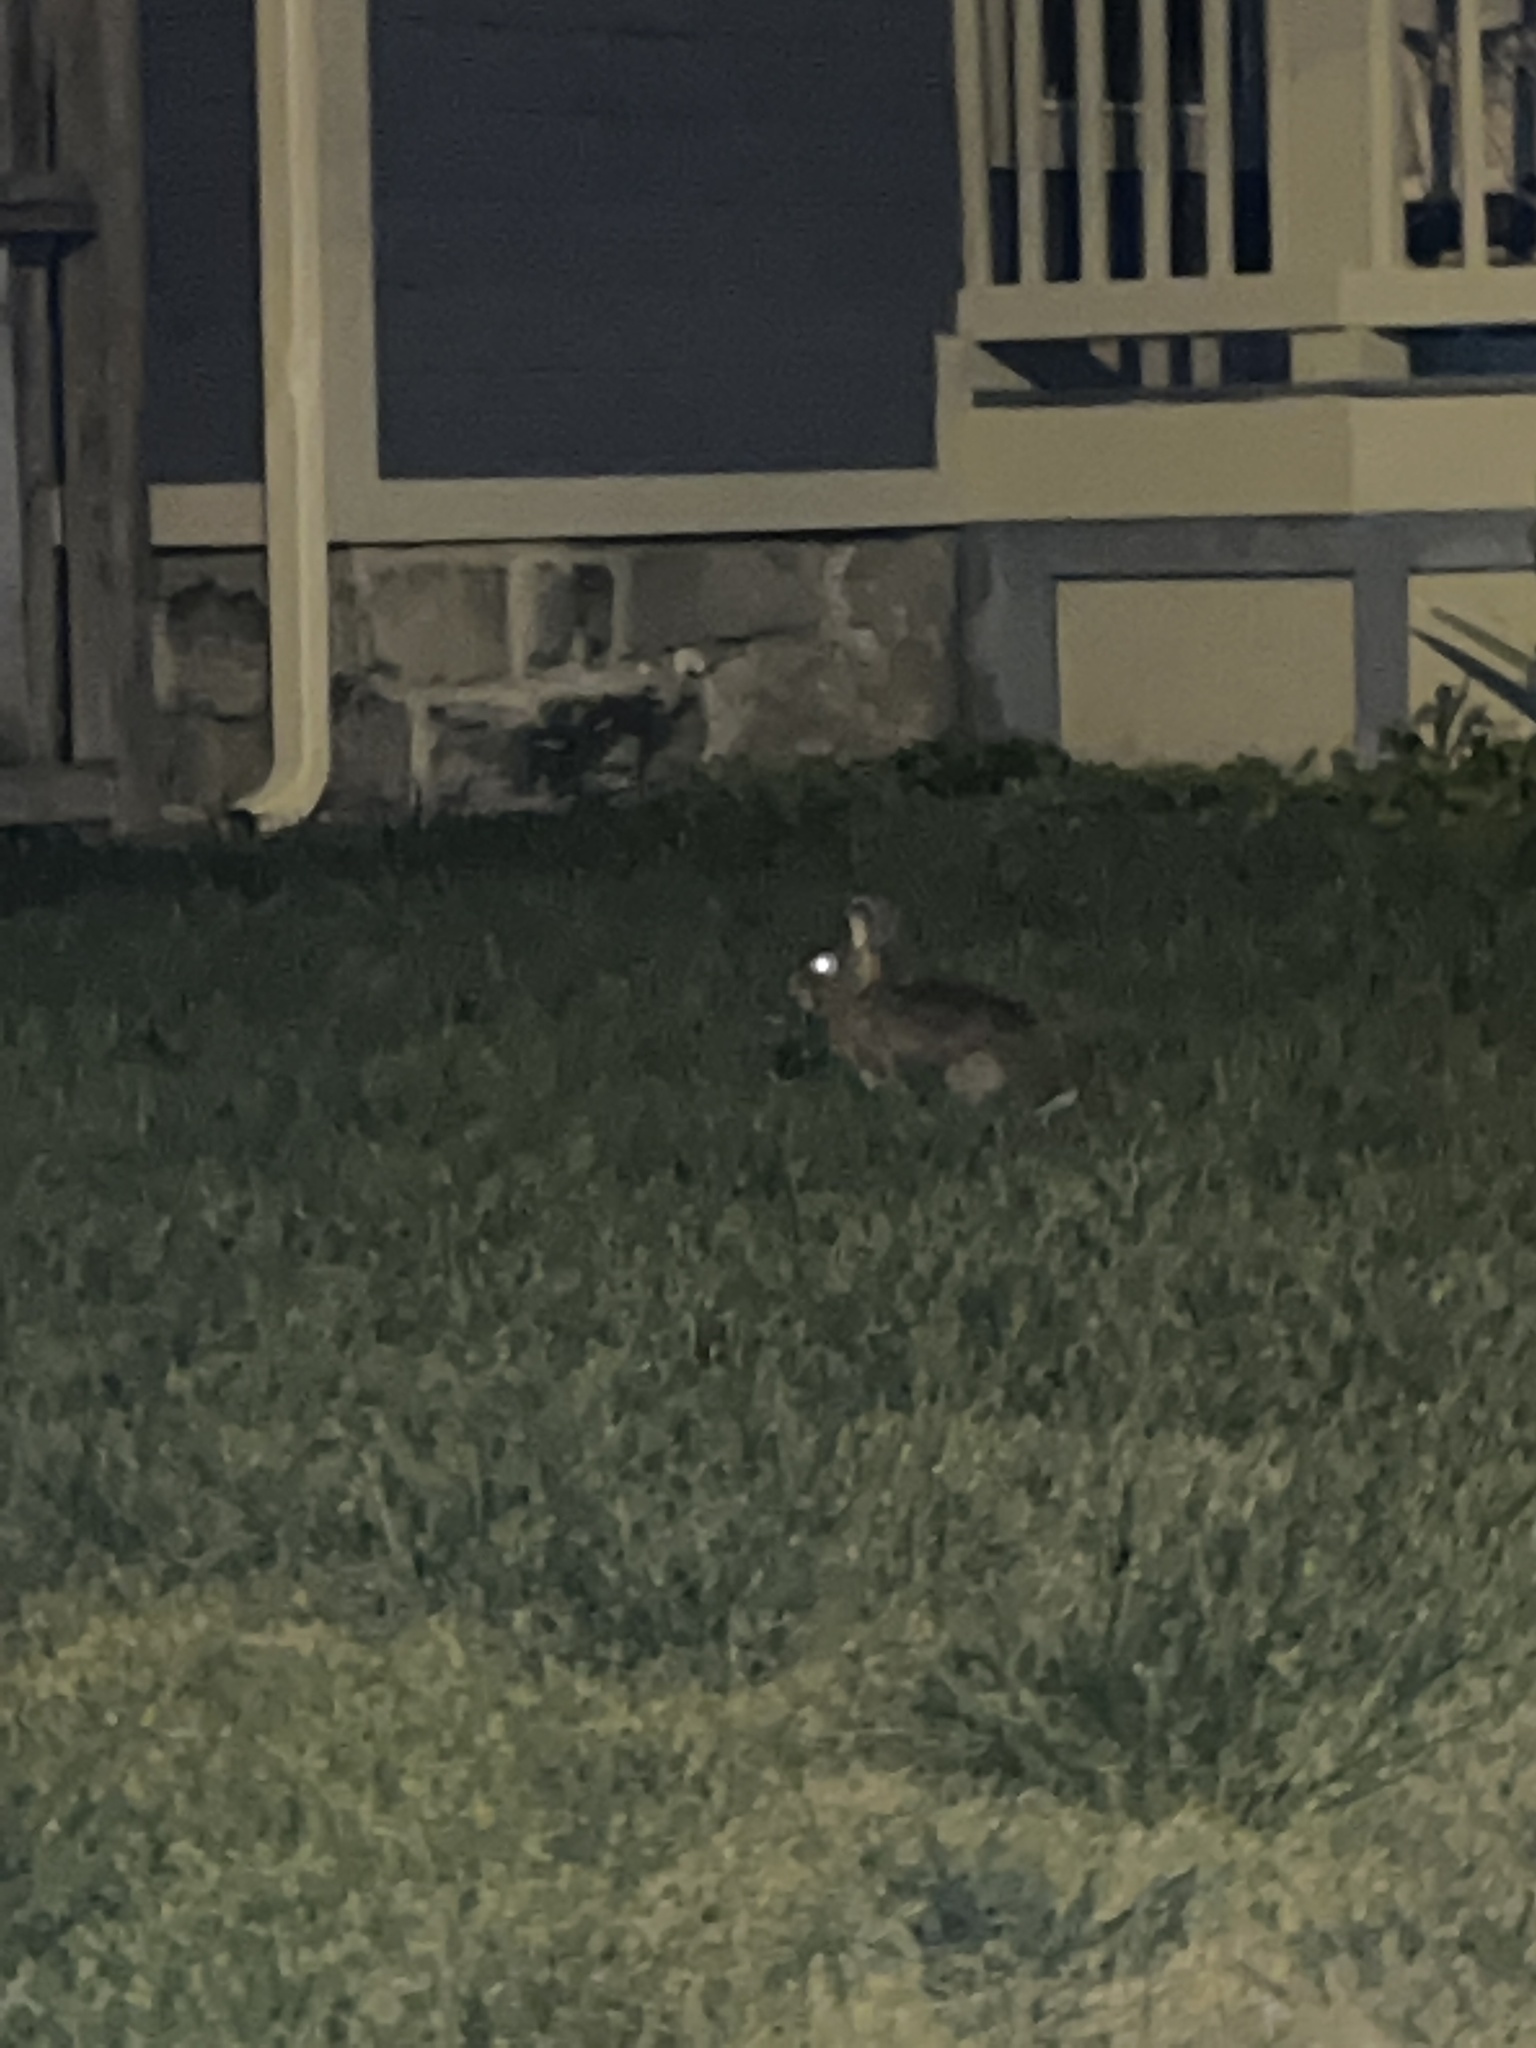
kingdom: Animalia
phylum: Chordata
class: Mammalia
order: Lagomorpha
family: Leporidae
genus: Sylvilagus
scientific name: Sylvilagus floridanus
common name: Eastern cottontail
